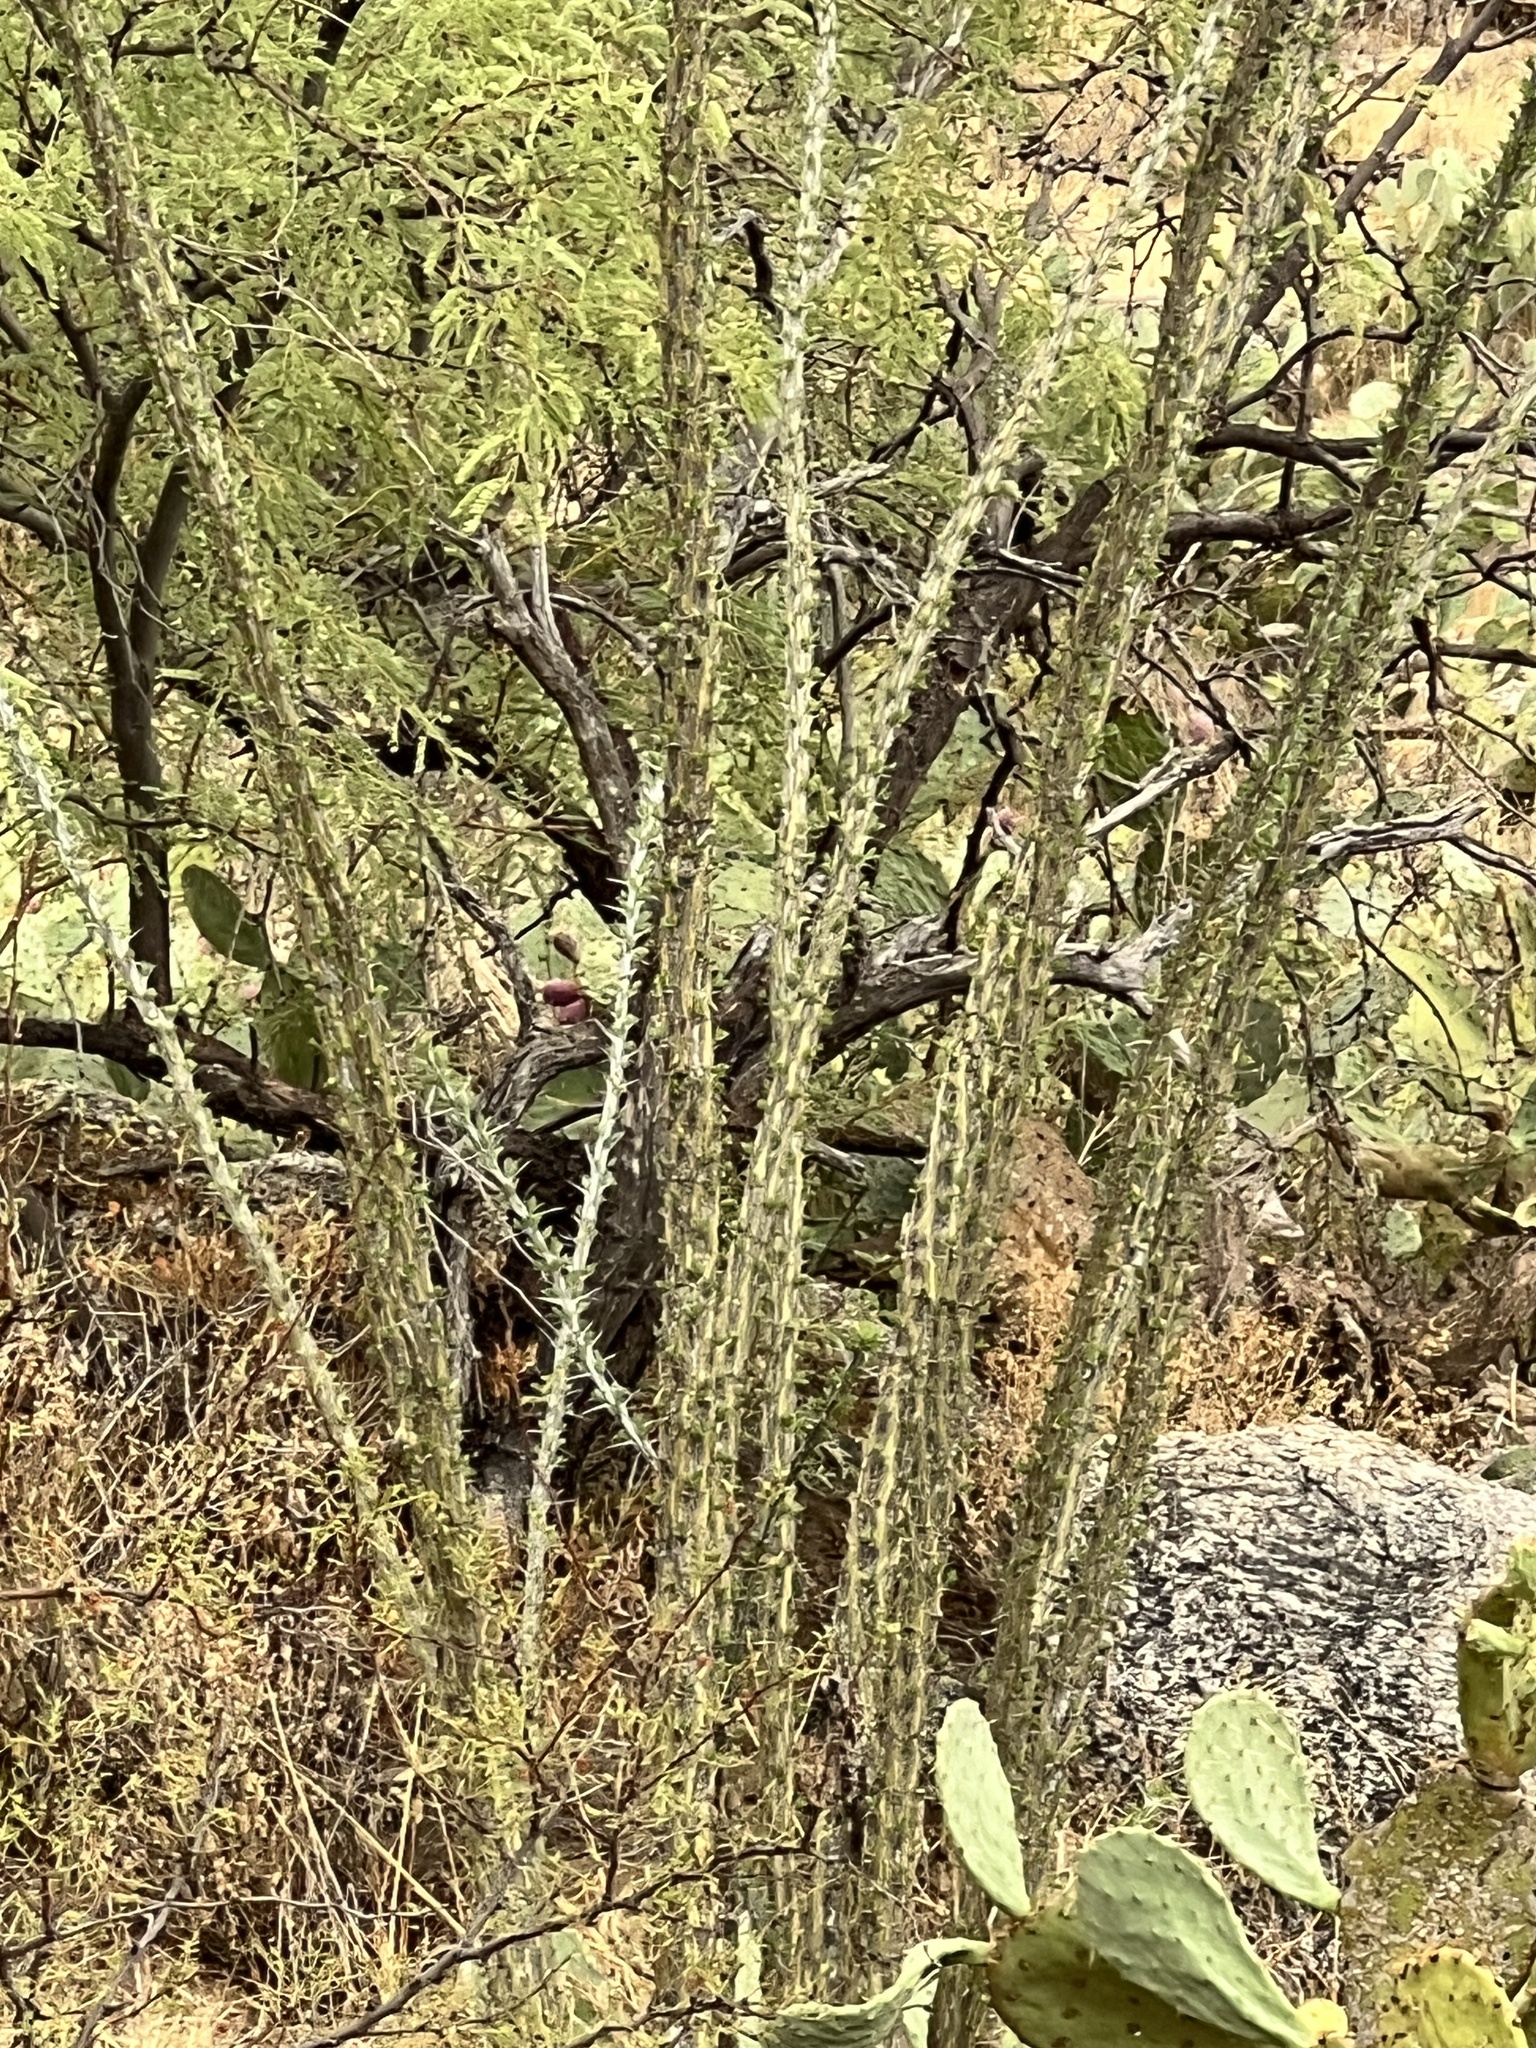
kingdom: Plantae
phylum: Tracheophyta
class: Magnoliopsida
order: Ericales
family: Fouquieriaceae
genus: Fouquieria
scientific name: Fouquieria splendens
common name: Vine-cactus
